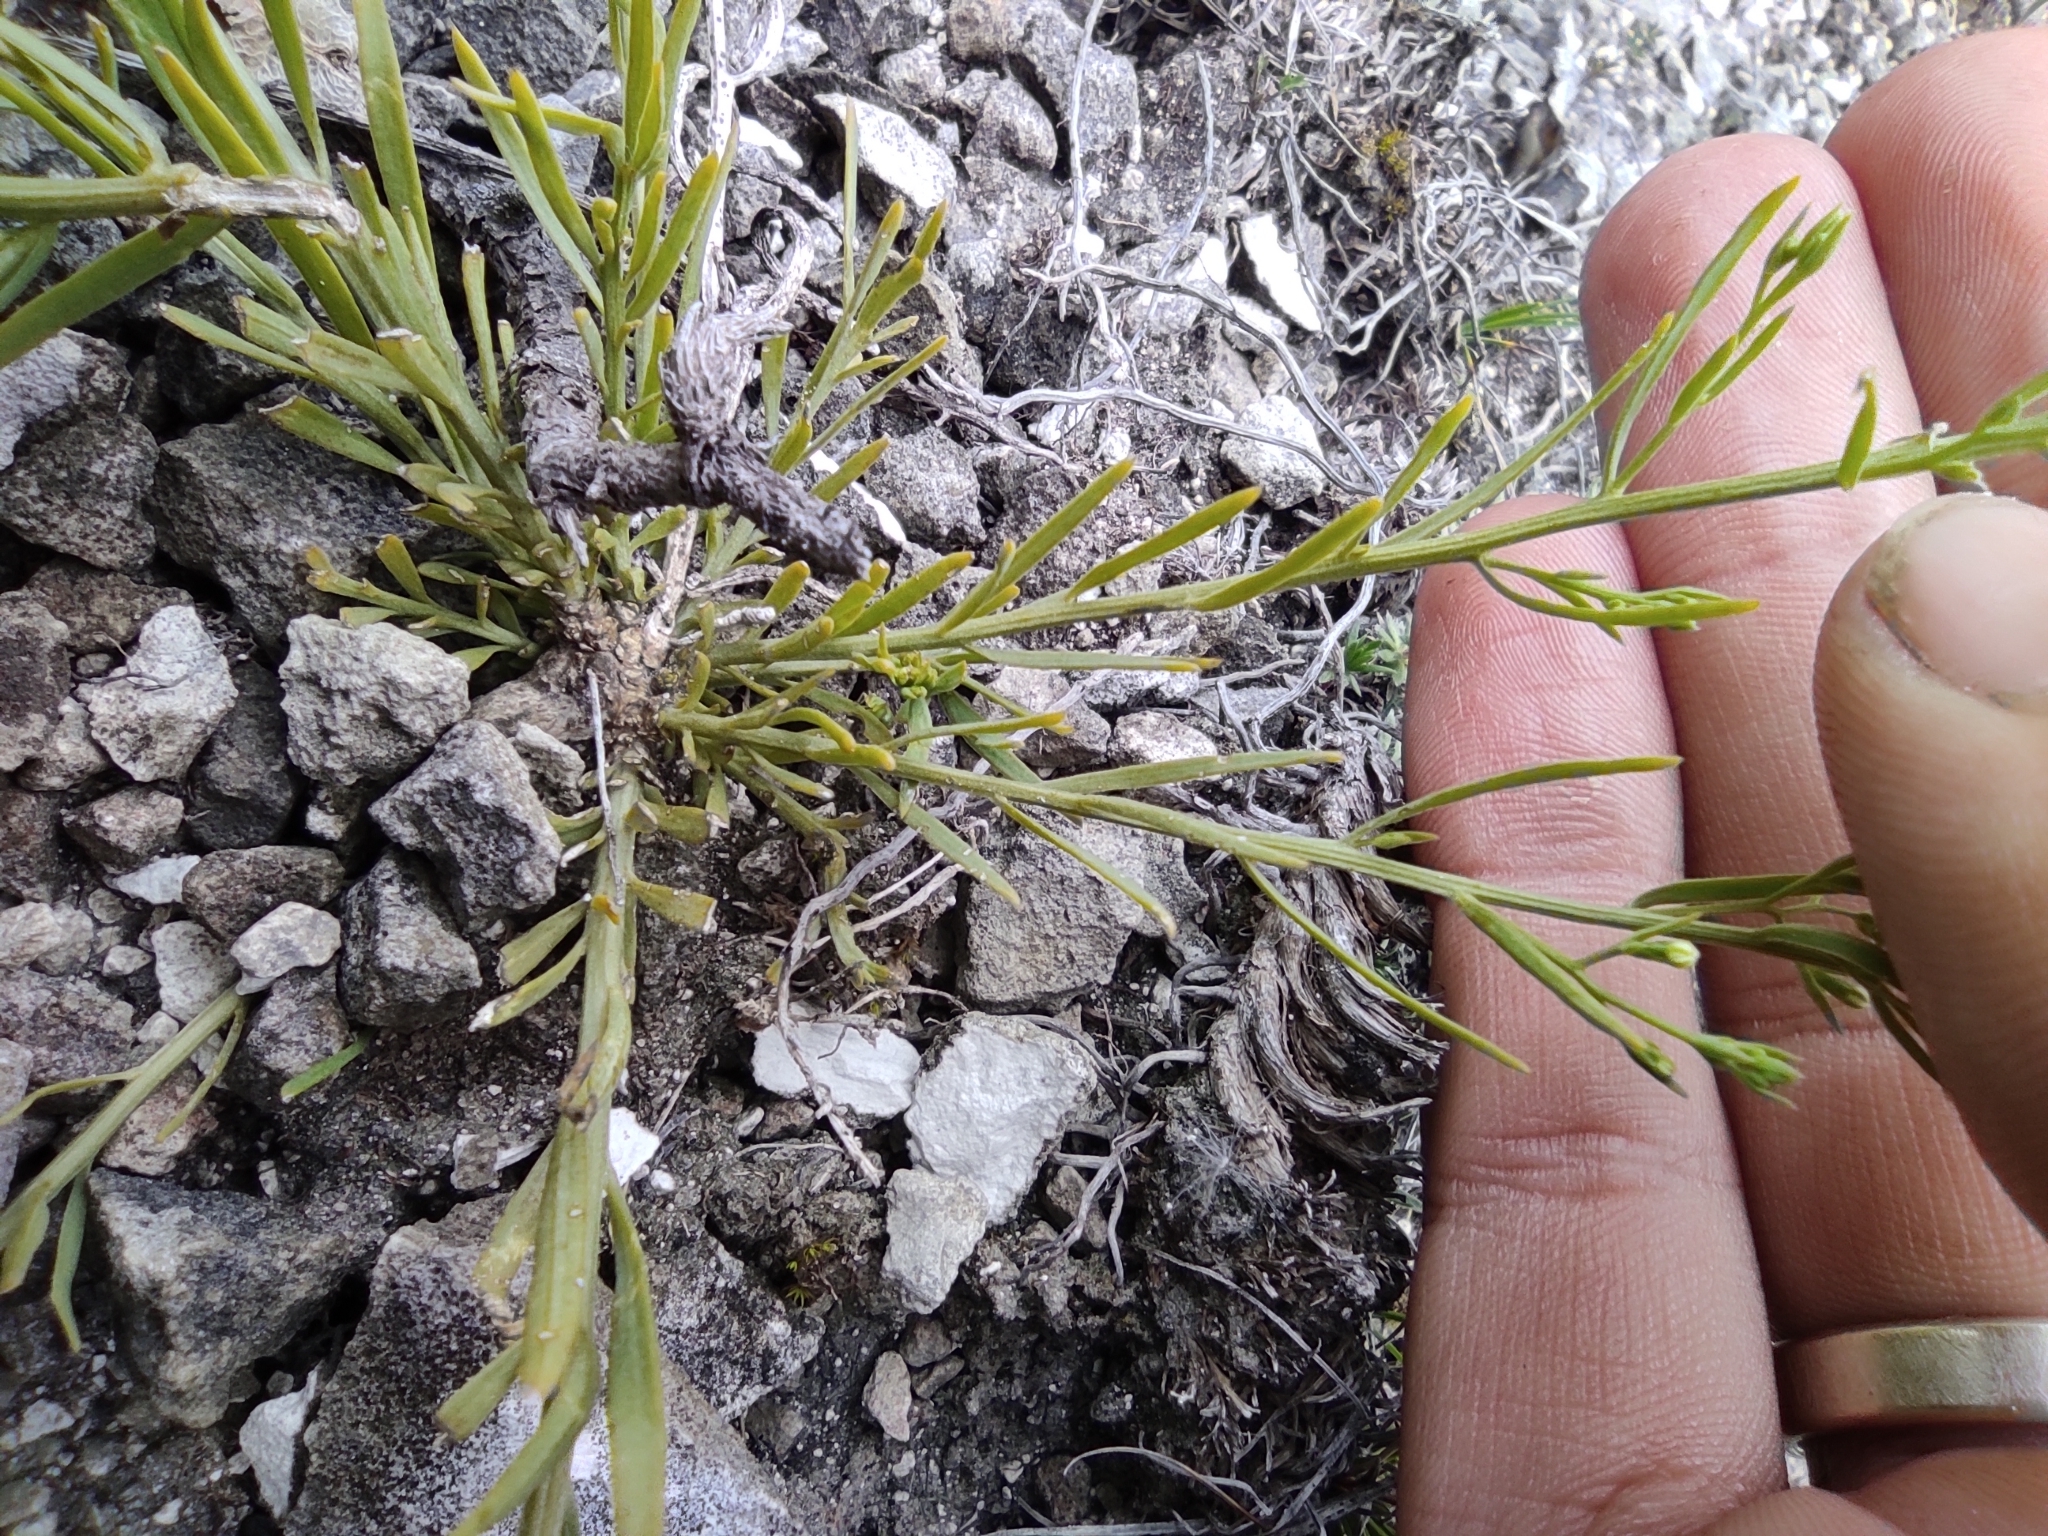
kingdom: Plantae
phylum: Tracheophyta
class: Magnoliopsida
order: Santalales
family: Thesiaceae
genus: Thesium
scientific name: Thesium ramosum
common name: Field thesium
